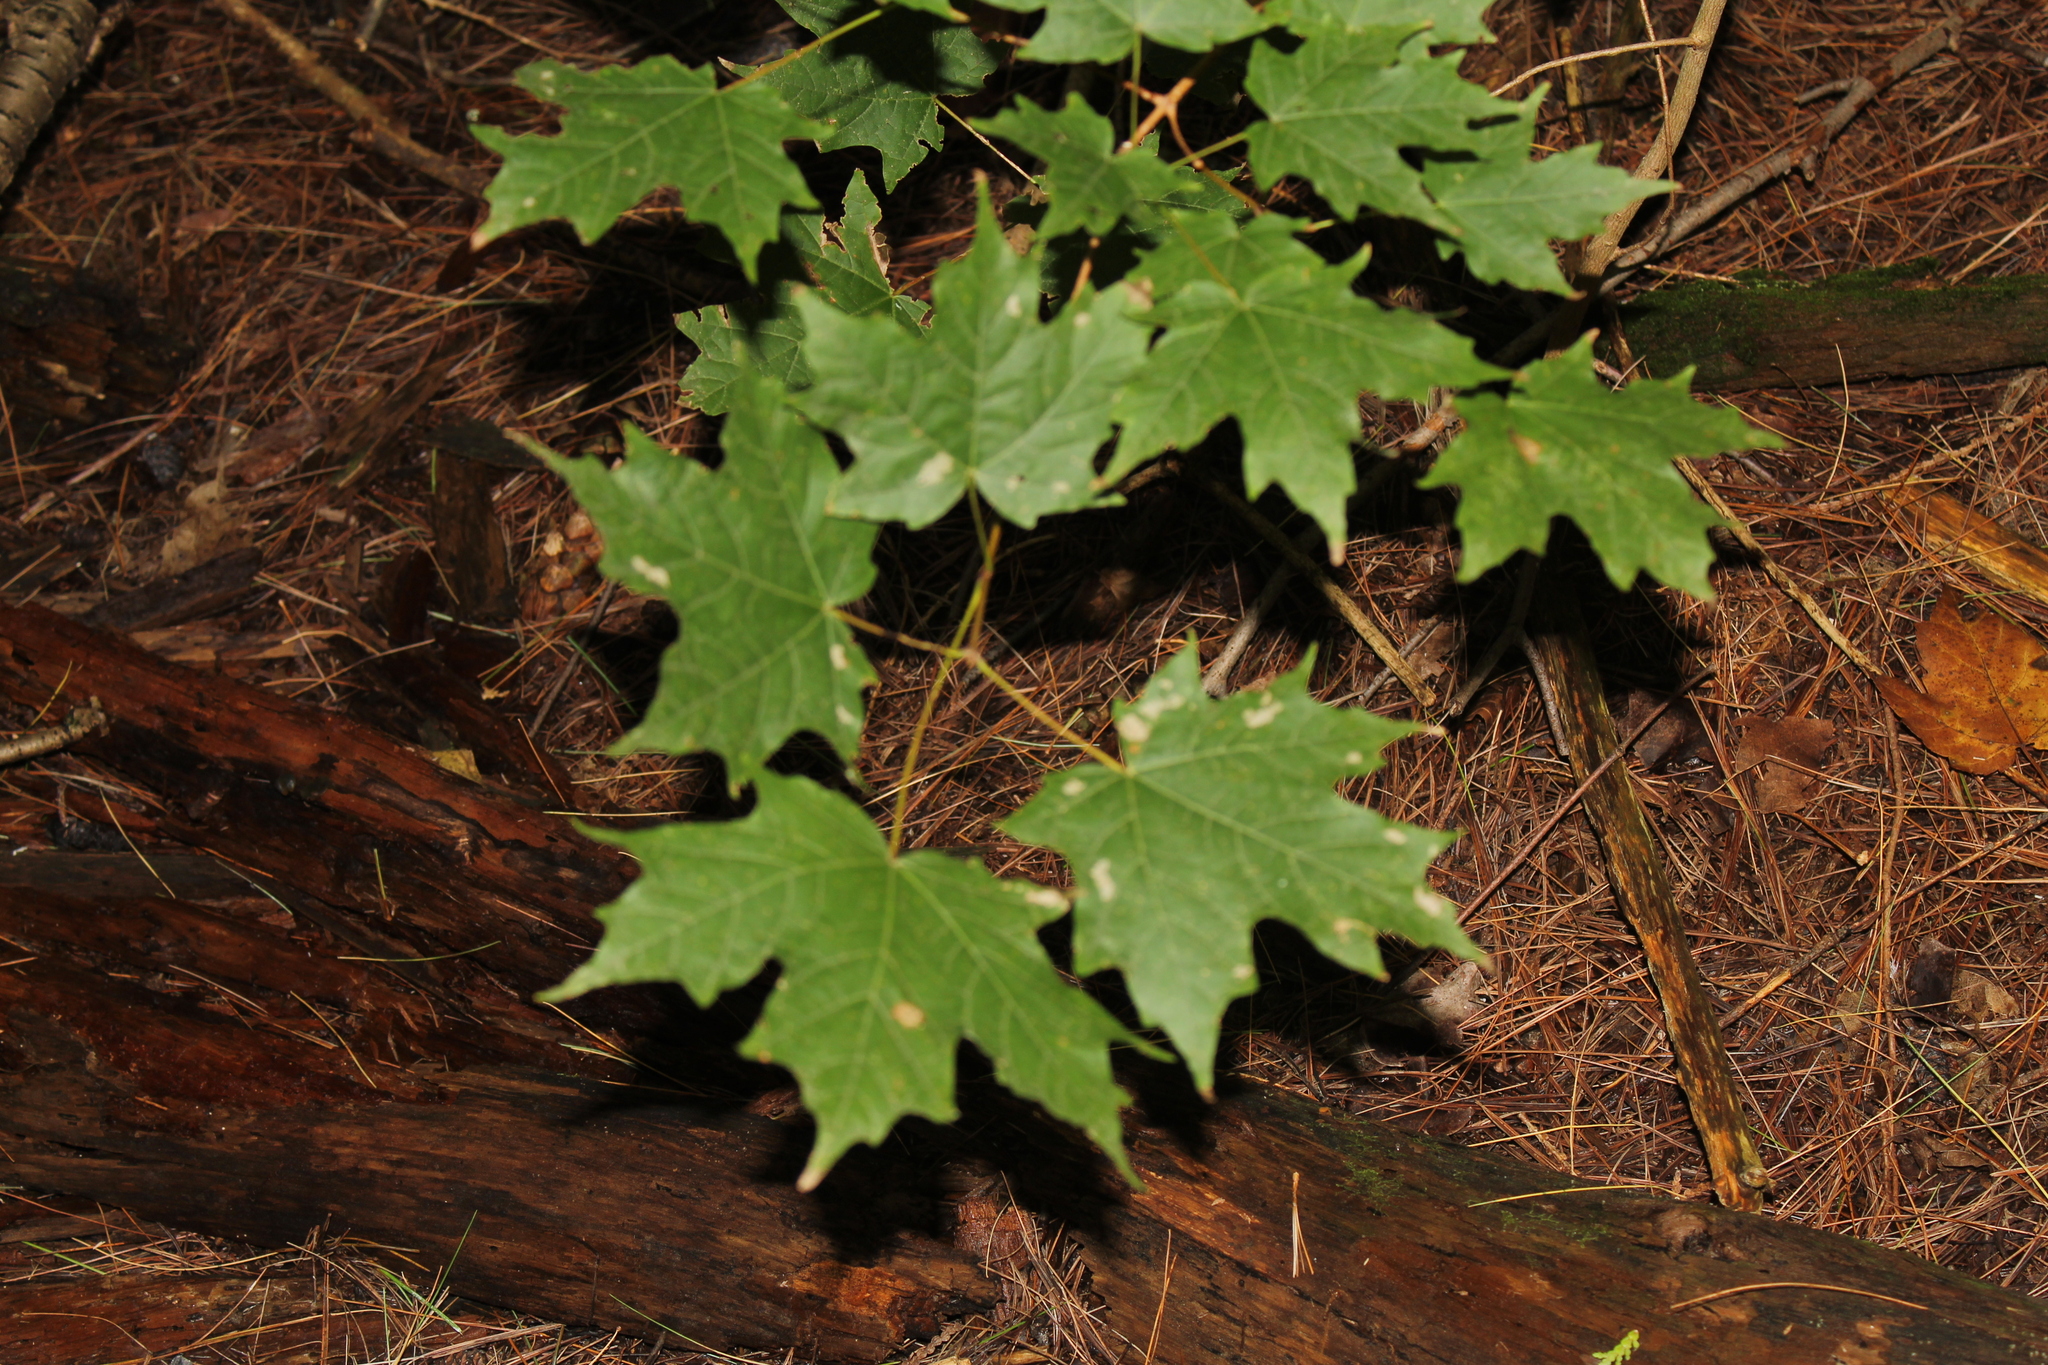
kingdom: Plantae
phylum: Tracheophyta
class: Magnoliopsida
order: Sapindales
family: Sapindaceae
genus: Acer
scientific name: Acer saccharum
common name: Sugar maple
